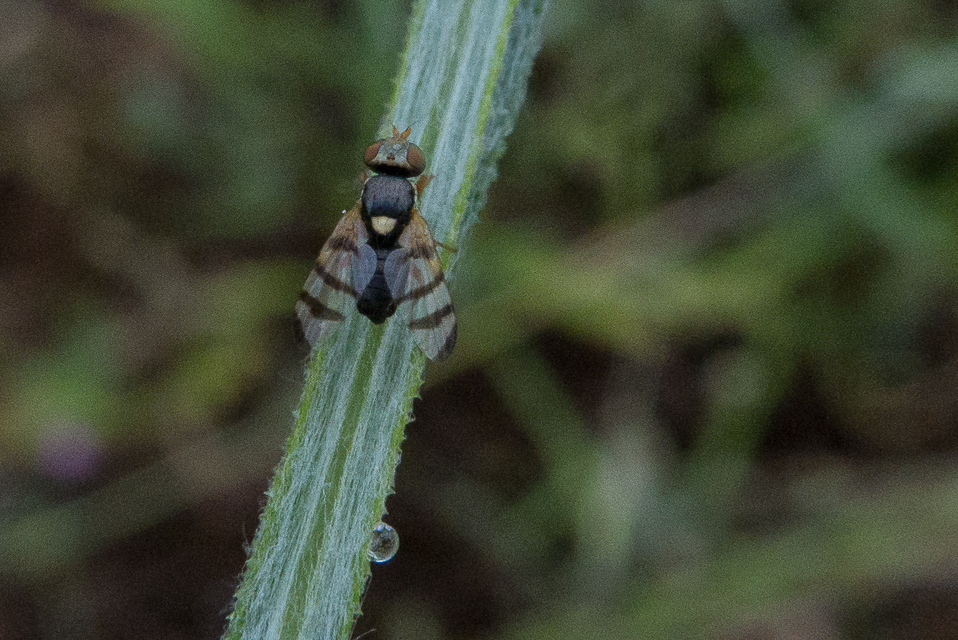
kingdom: Animalia
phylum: Arthropoda
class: Insecta
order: Diptera
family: Tephritidae
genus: Urophora
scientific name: Urophora sirunaseva
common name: Fruit fly
